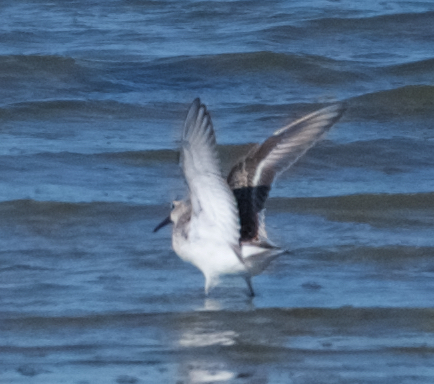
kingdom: Animalia
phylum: Chordata
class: Aves
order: Charadriiformes
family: Scolopacidae
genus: Calidris
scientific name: Calidris mauri
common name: Western sandpiper
